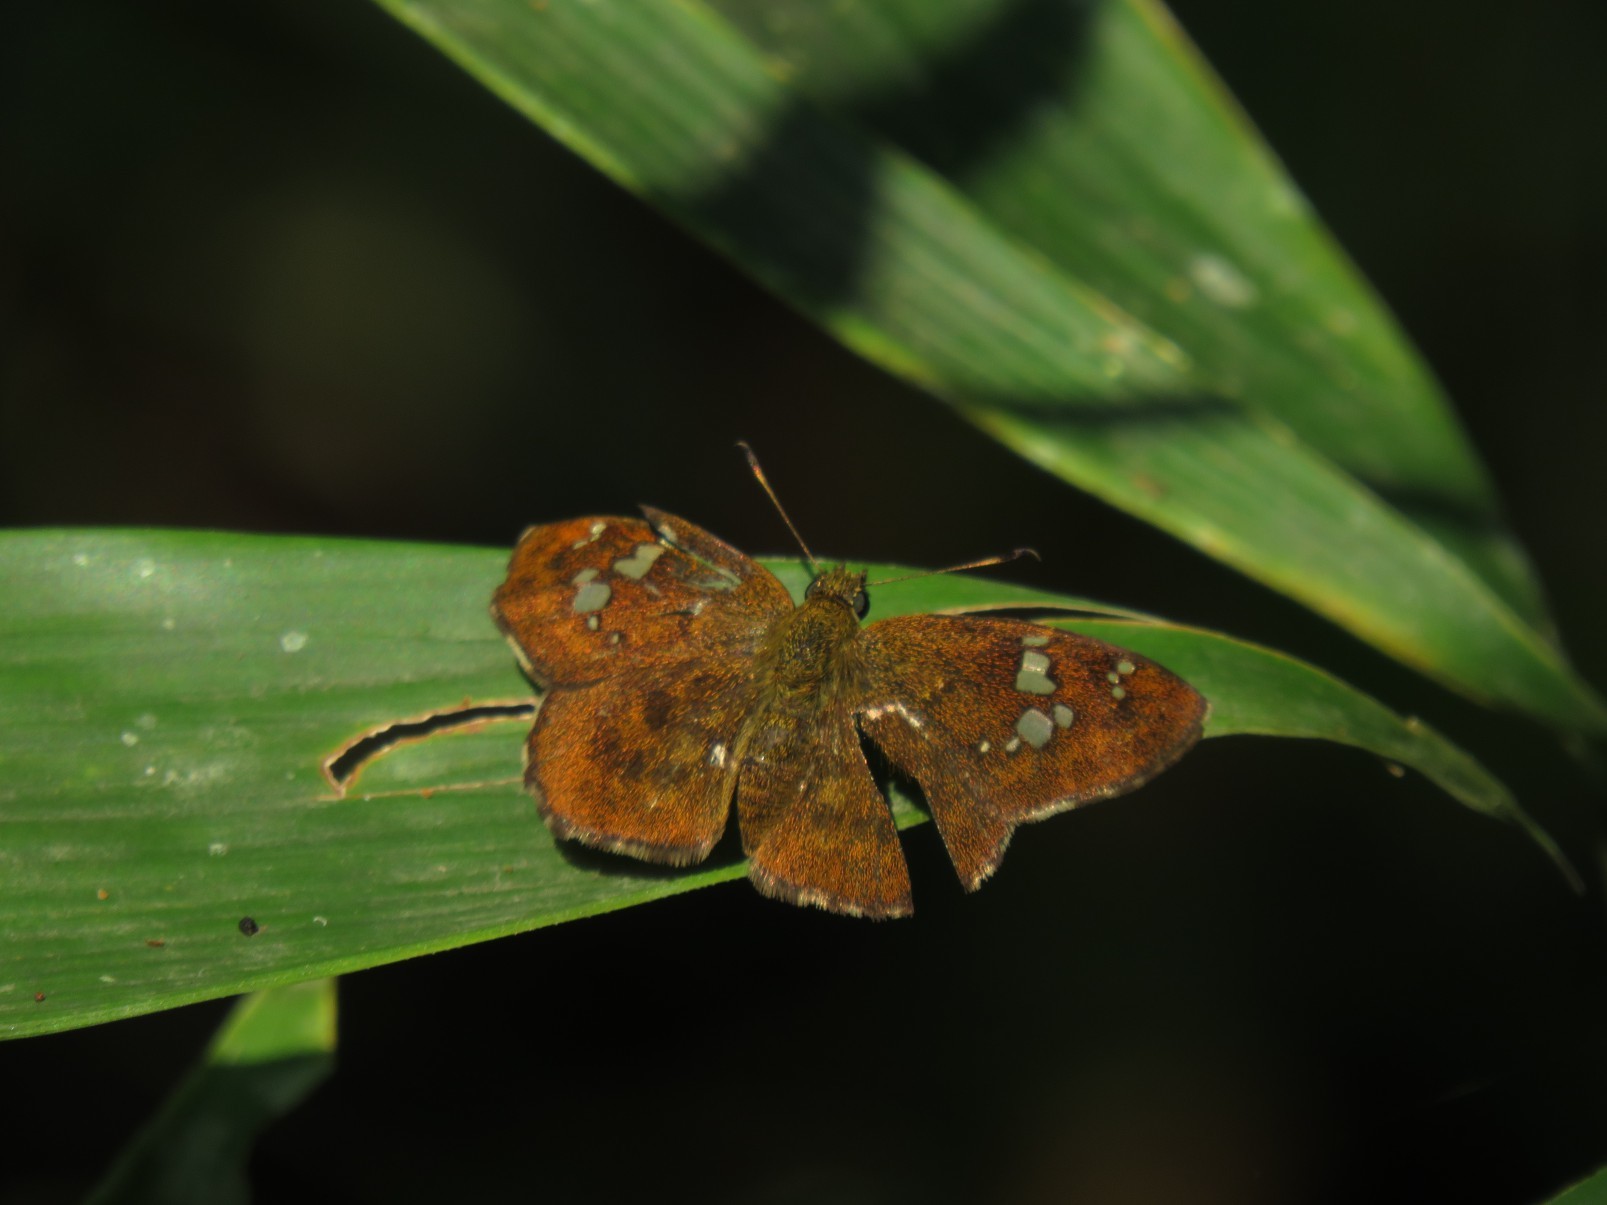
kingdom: Animalia
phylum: Arthropoda
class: Insecta
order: Lepidoptera
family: Hesperiidae
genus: Pseudocoladenia
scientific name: Pseudocoladenia dan
